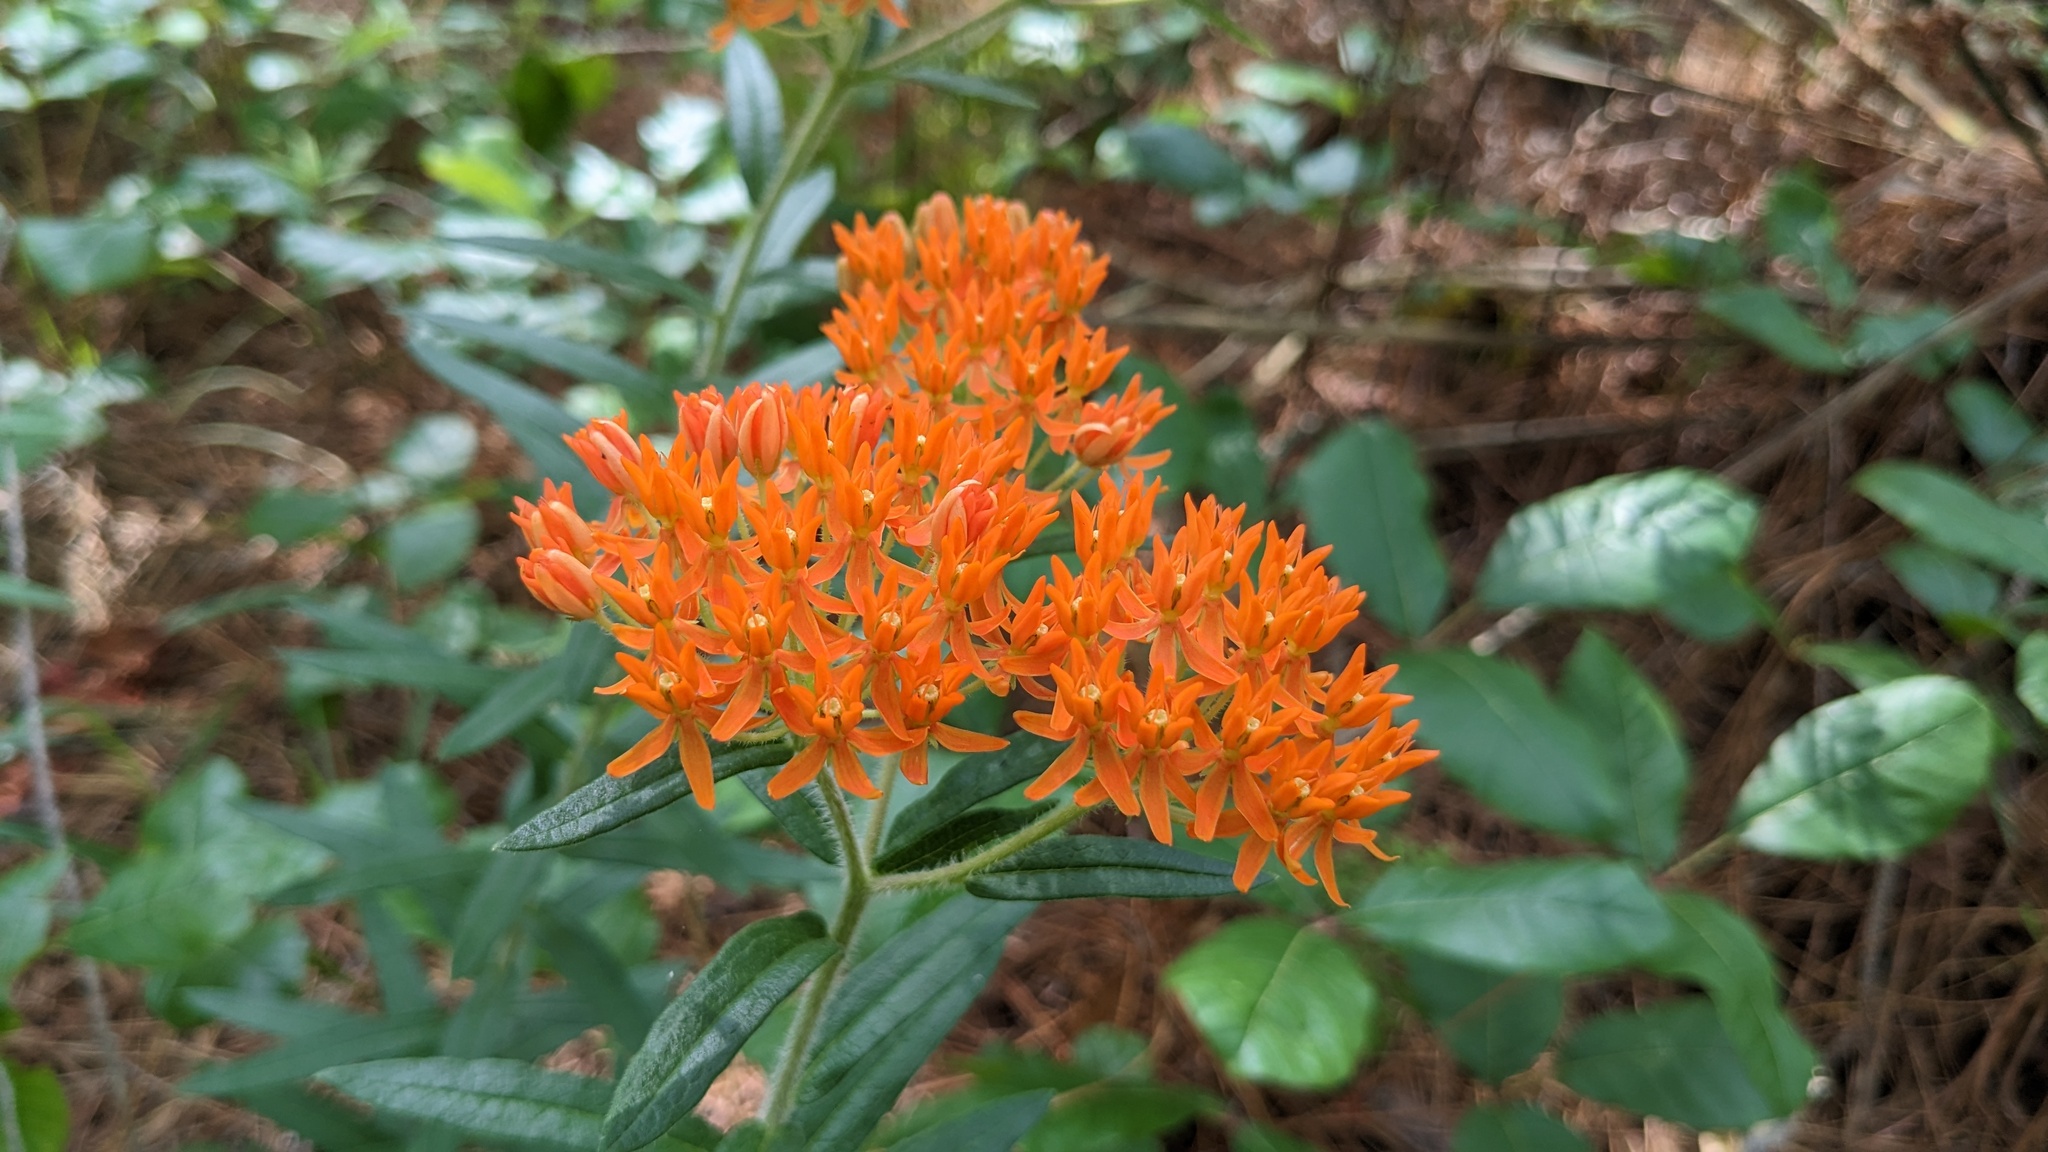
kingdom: Plantae
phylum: Tracheophyta
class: Magnoliopsida
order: Gentianales
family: Apocynaceae
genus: Asclepias
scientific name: Asclepias tuberosa
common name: Butterfly milkweed
